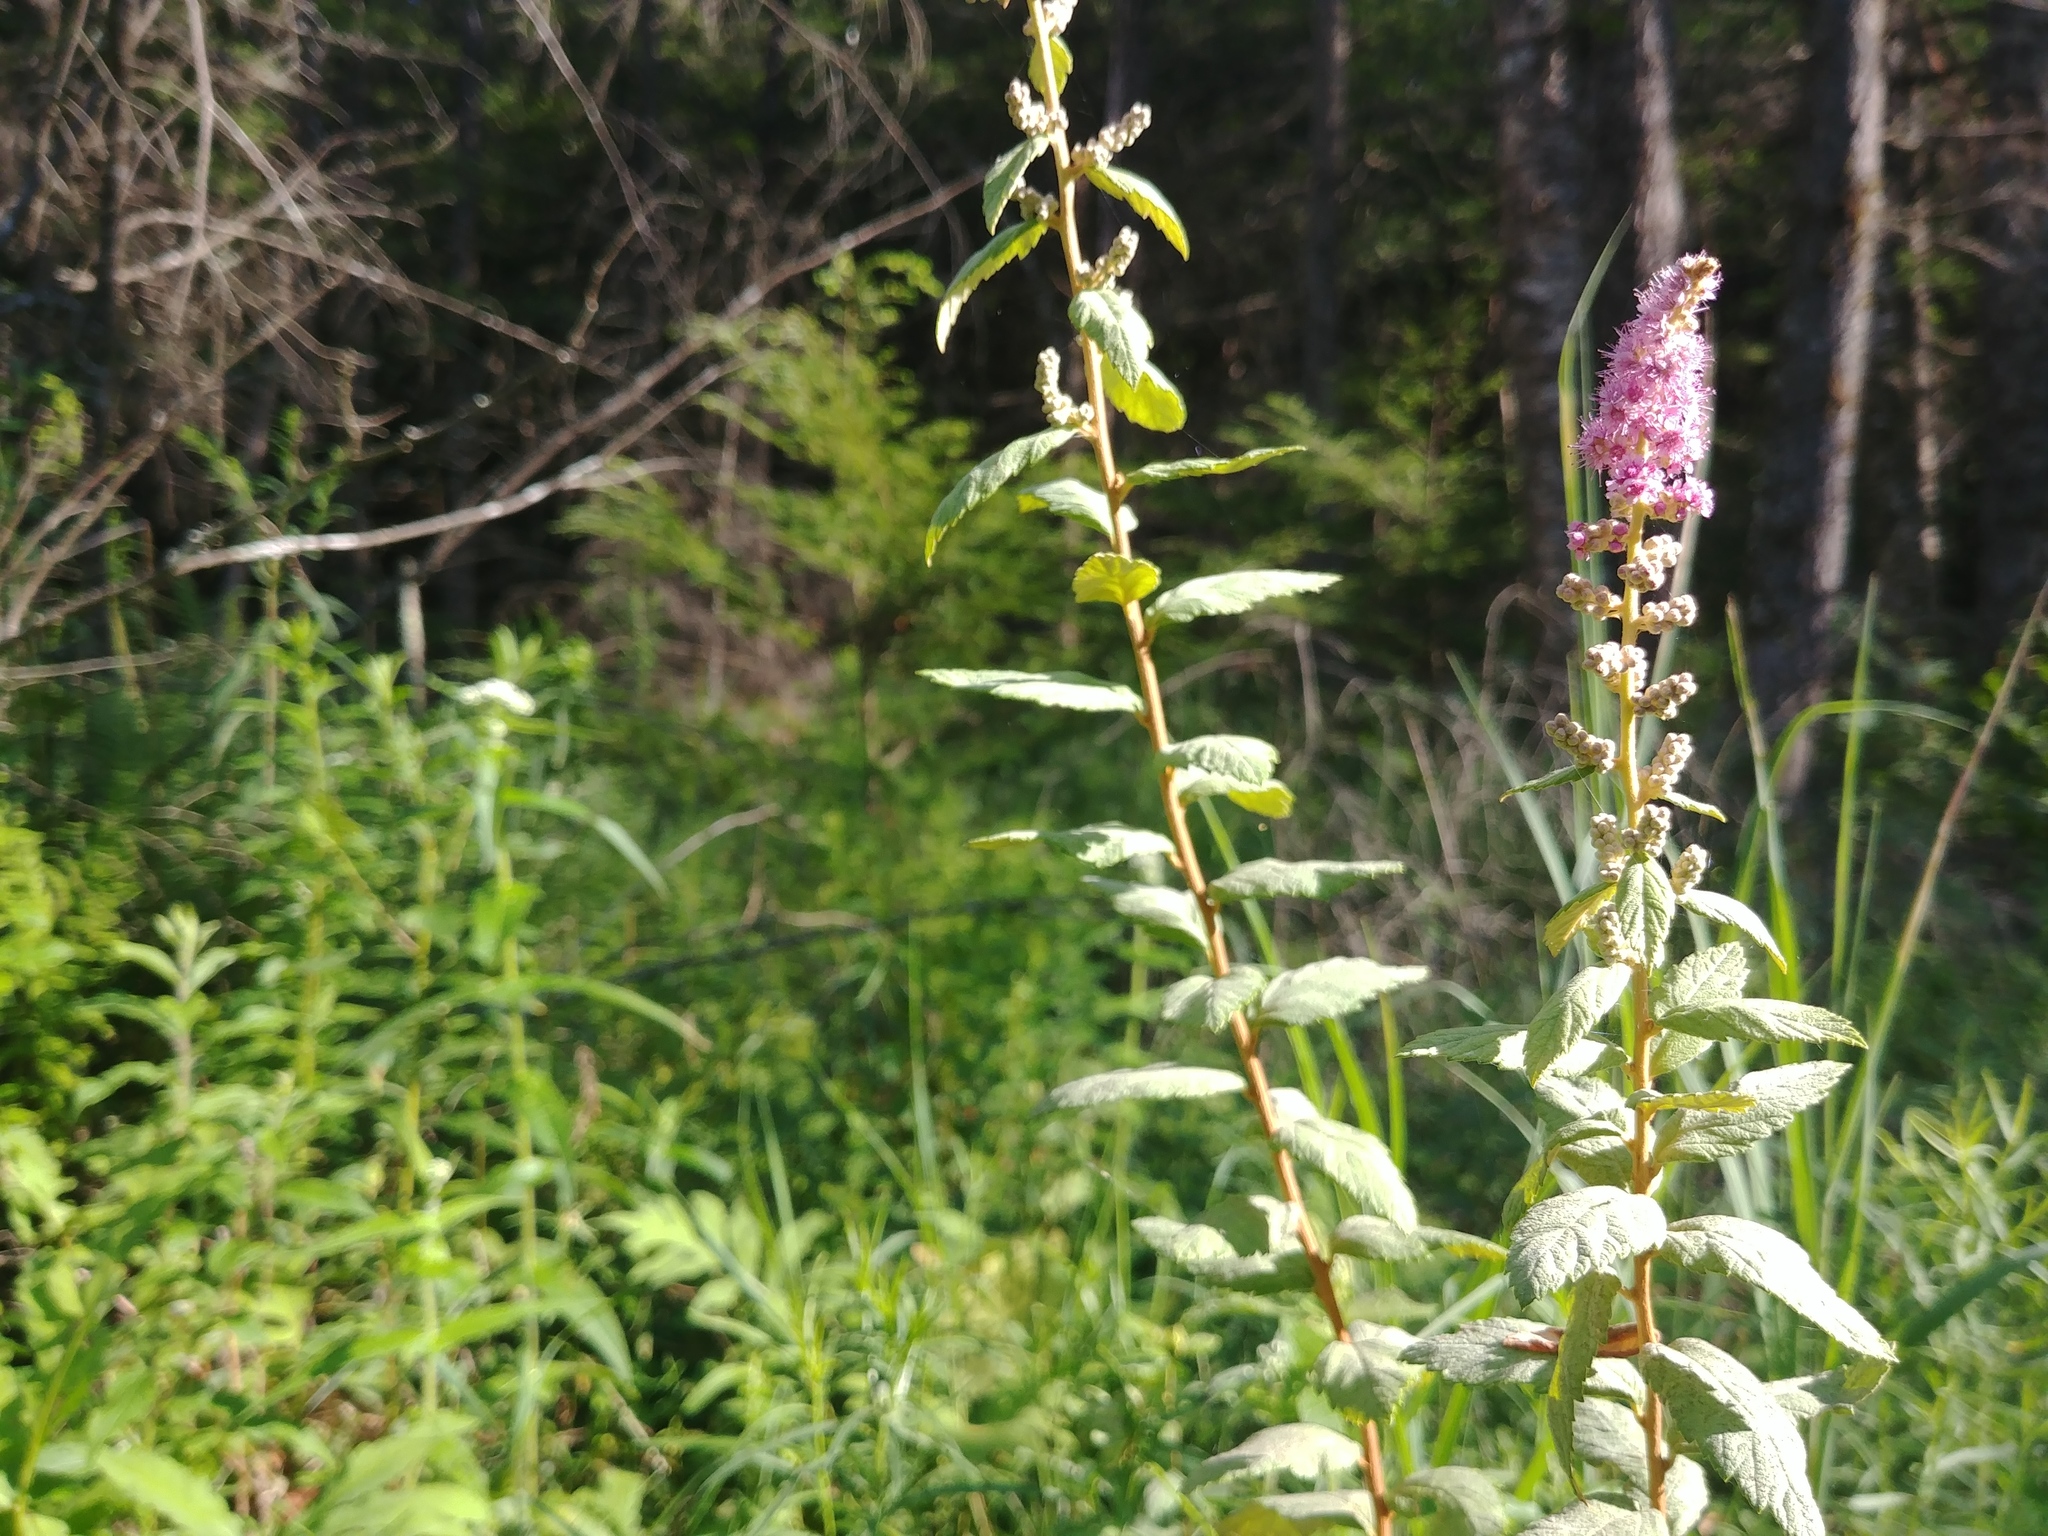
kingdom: Plantae
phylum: Tracheophyta
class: Magnoliopsida
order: Rosales
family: Rosaceae
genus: Spiraea
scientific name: Spiraea tomentosa
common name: Hardhack
